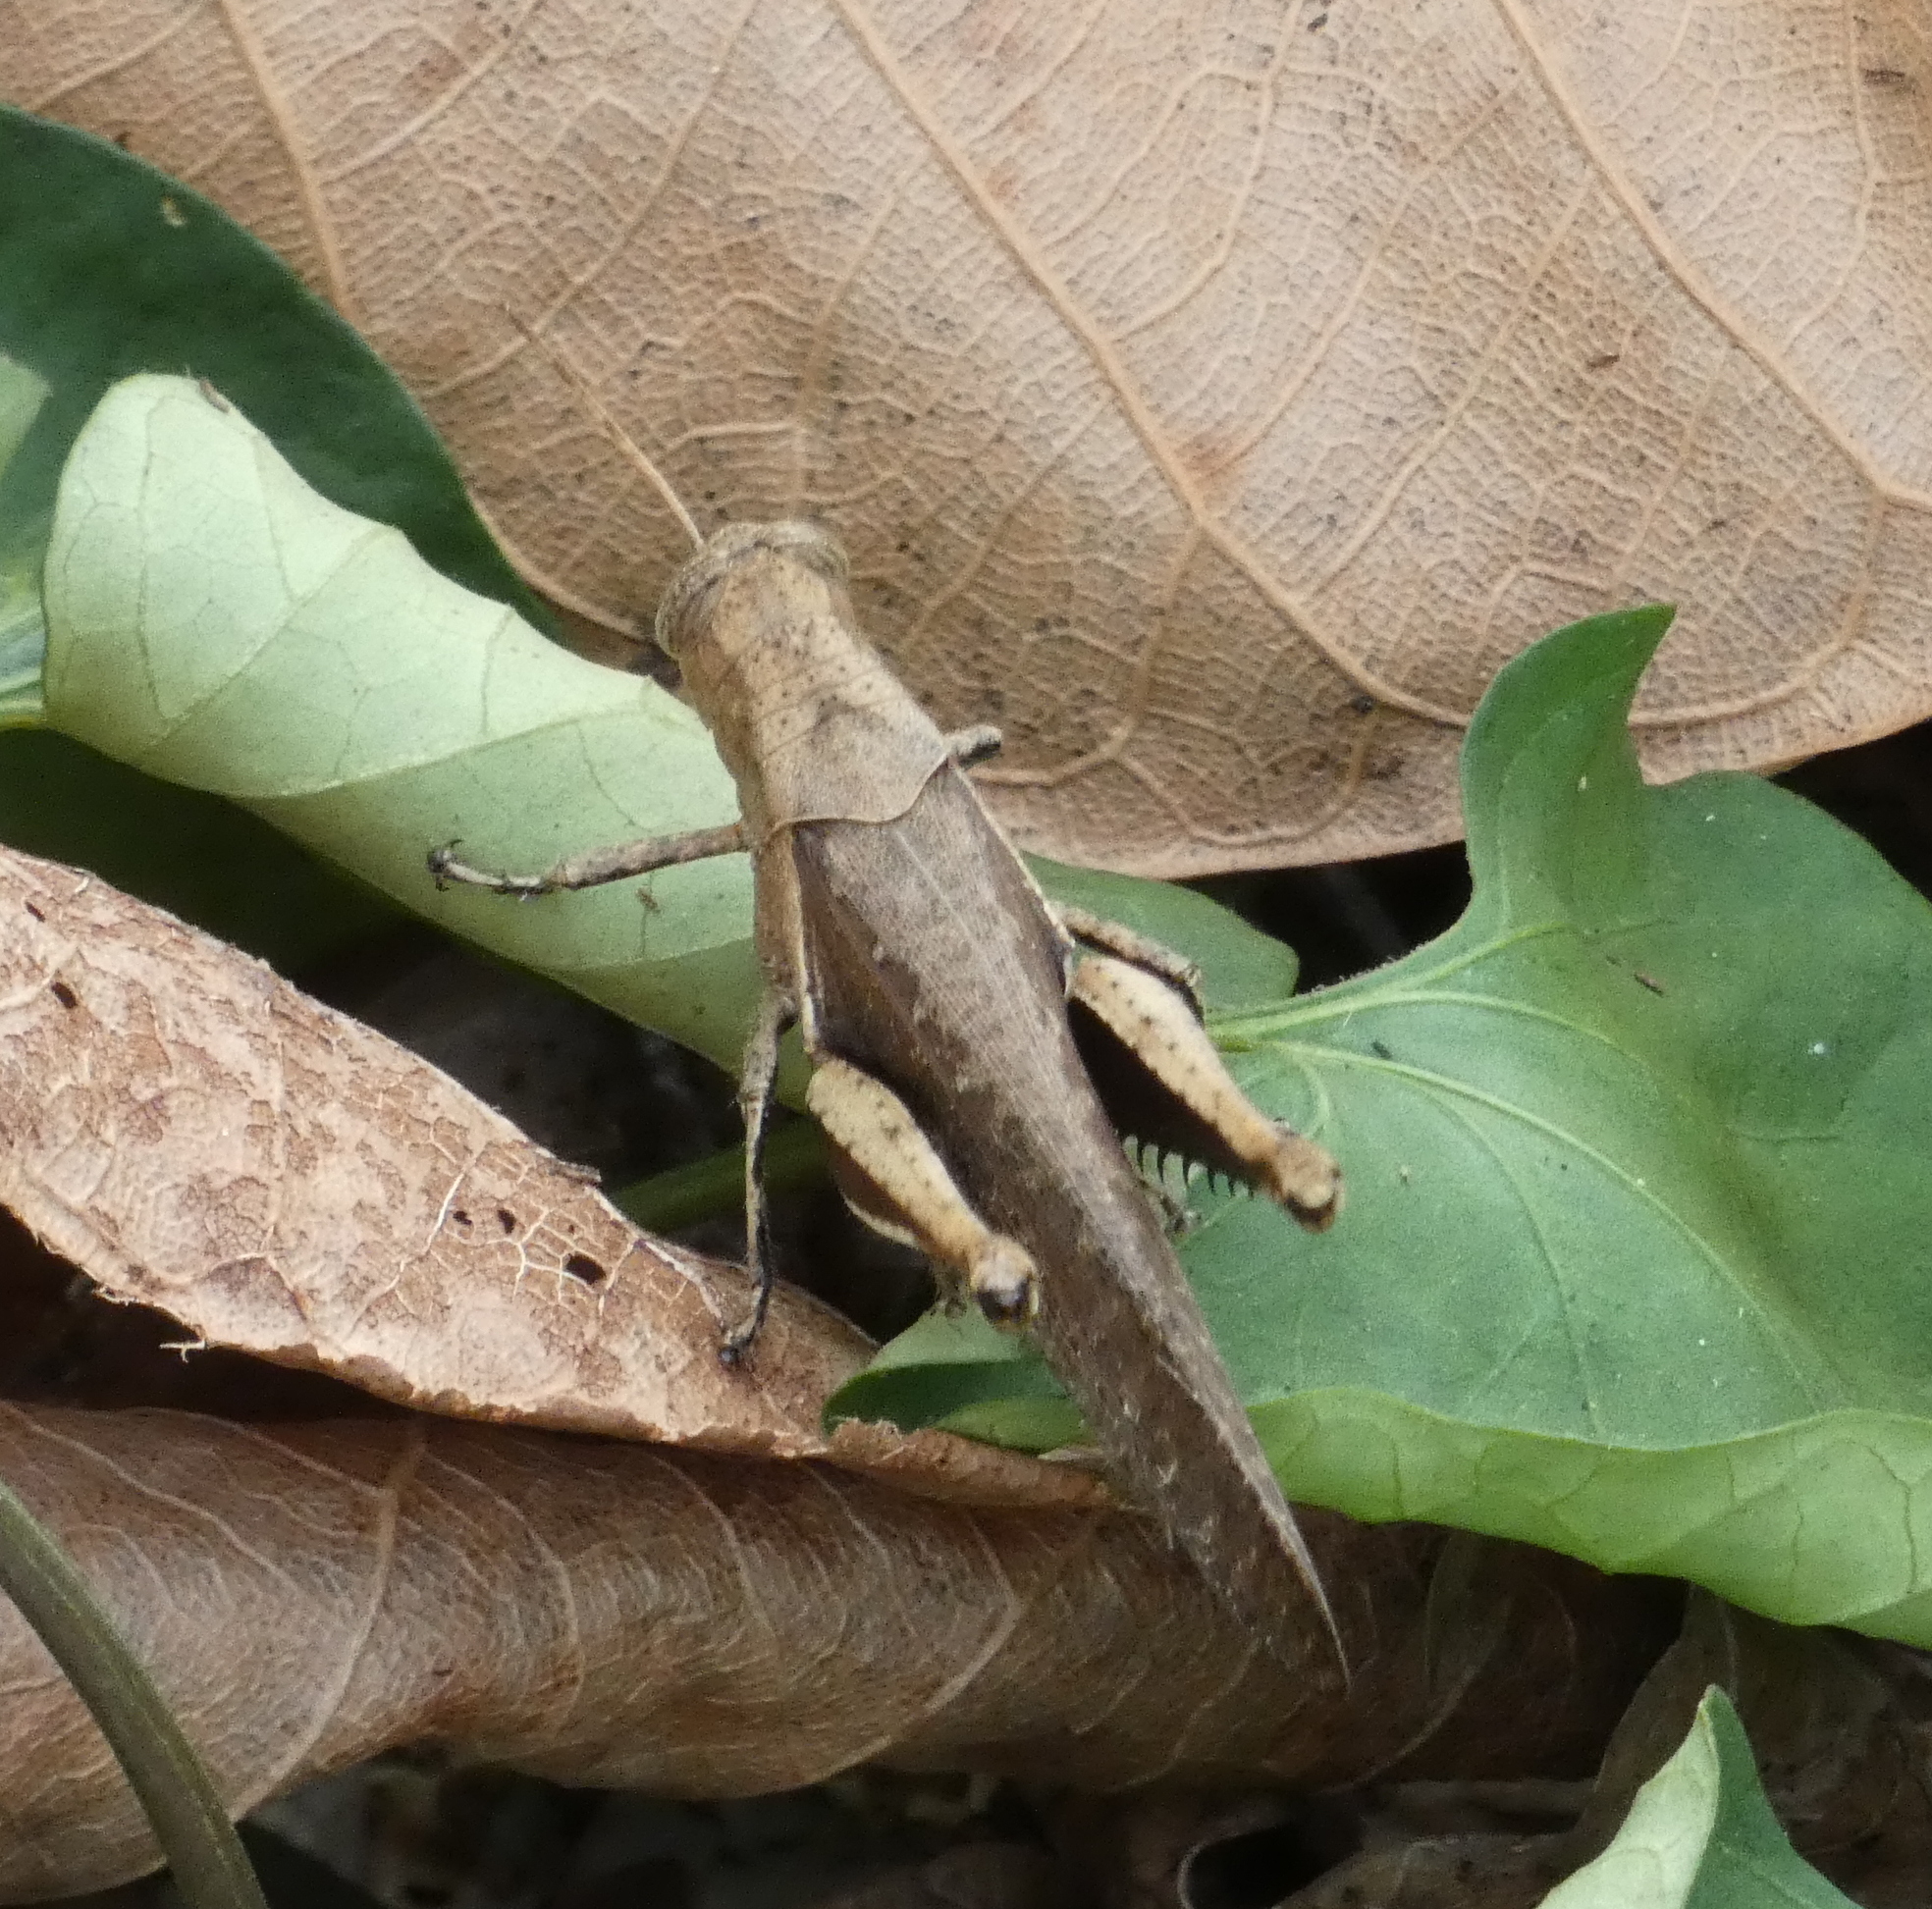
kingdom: Animalia
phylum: Arthropoda
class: Insecta
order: Orthoptera
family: Acrididae
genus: Abracris
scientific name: Abracris flavolineata
